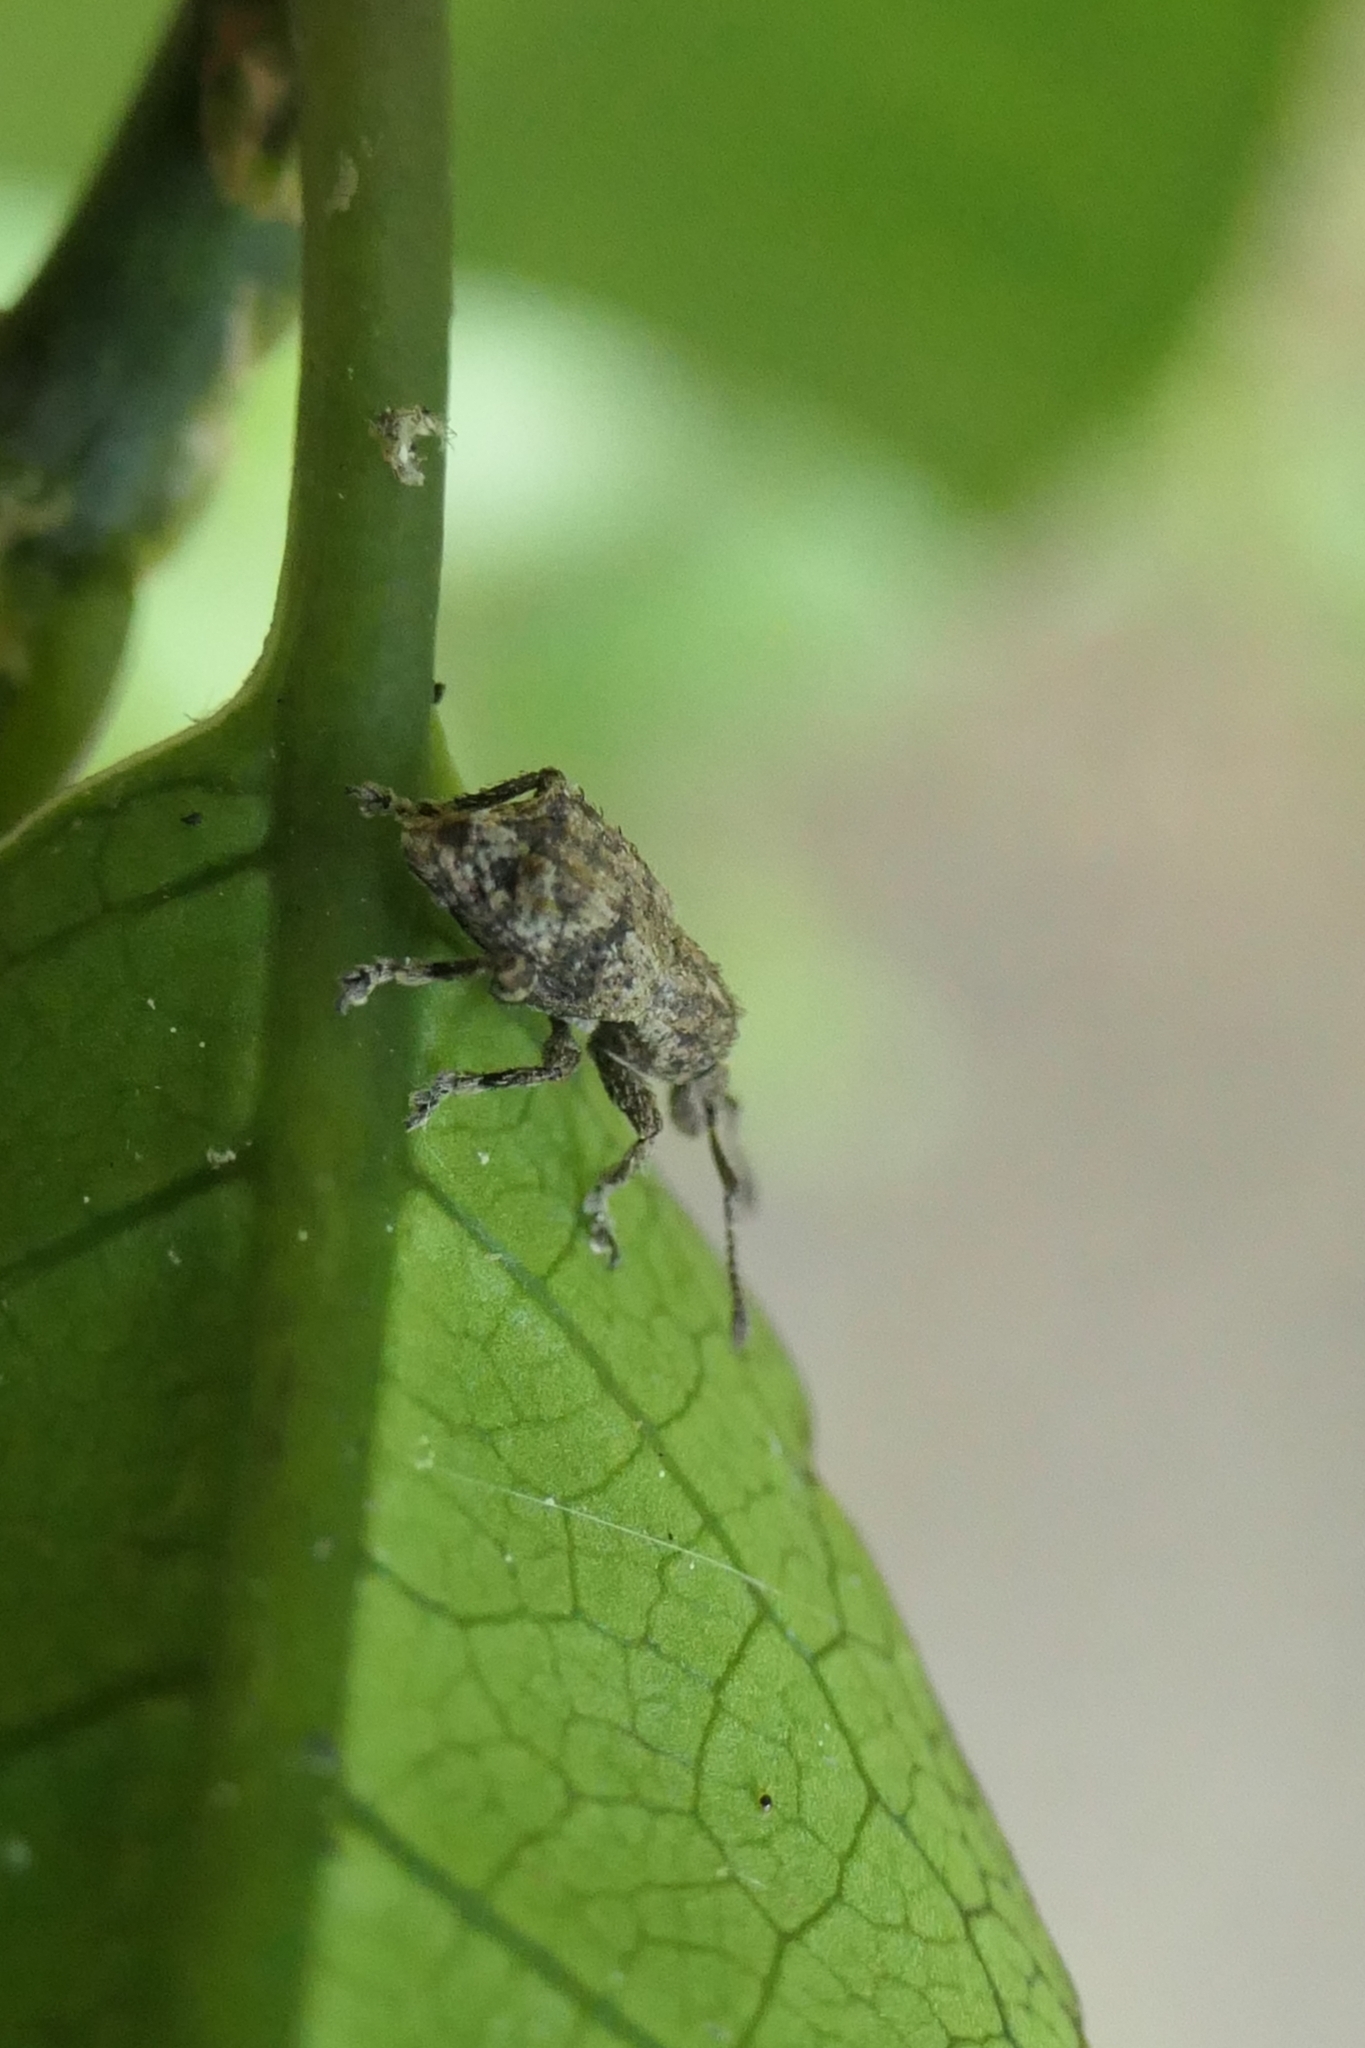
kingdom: Animalia
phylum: Arthropoda
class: Insecta
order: Coleoptera
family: Curculionidae
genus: Chalepistes
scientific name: Chalepistes asperatus
